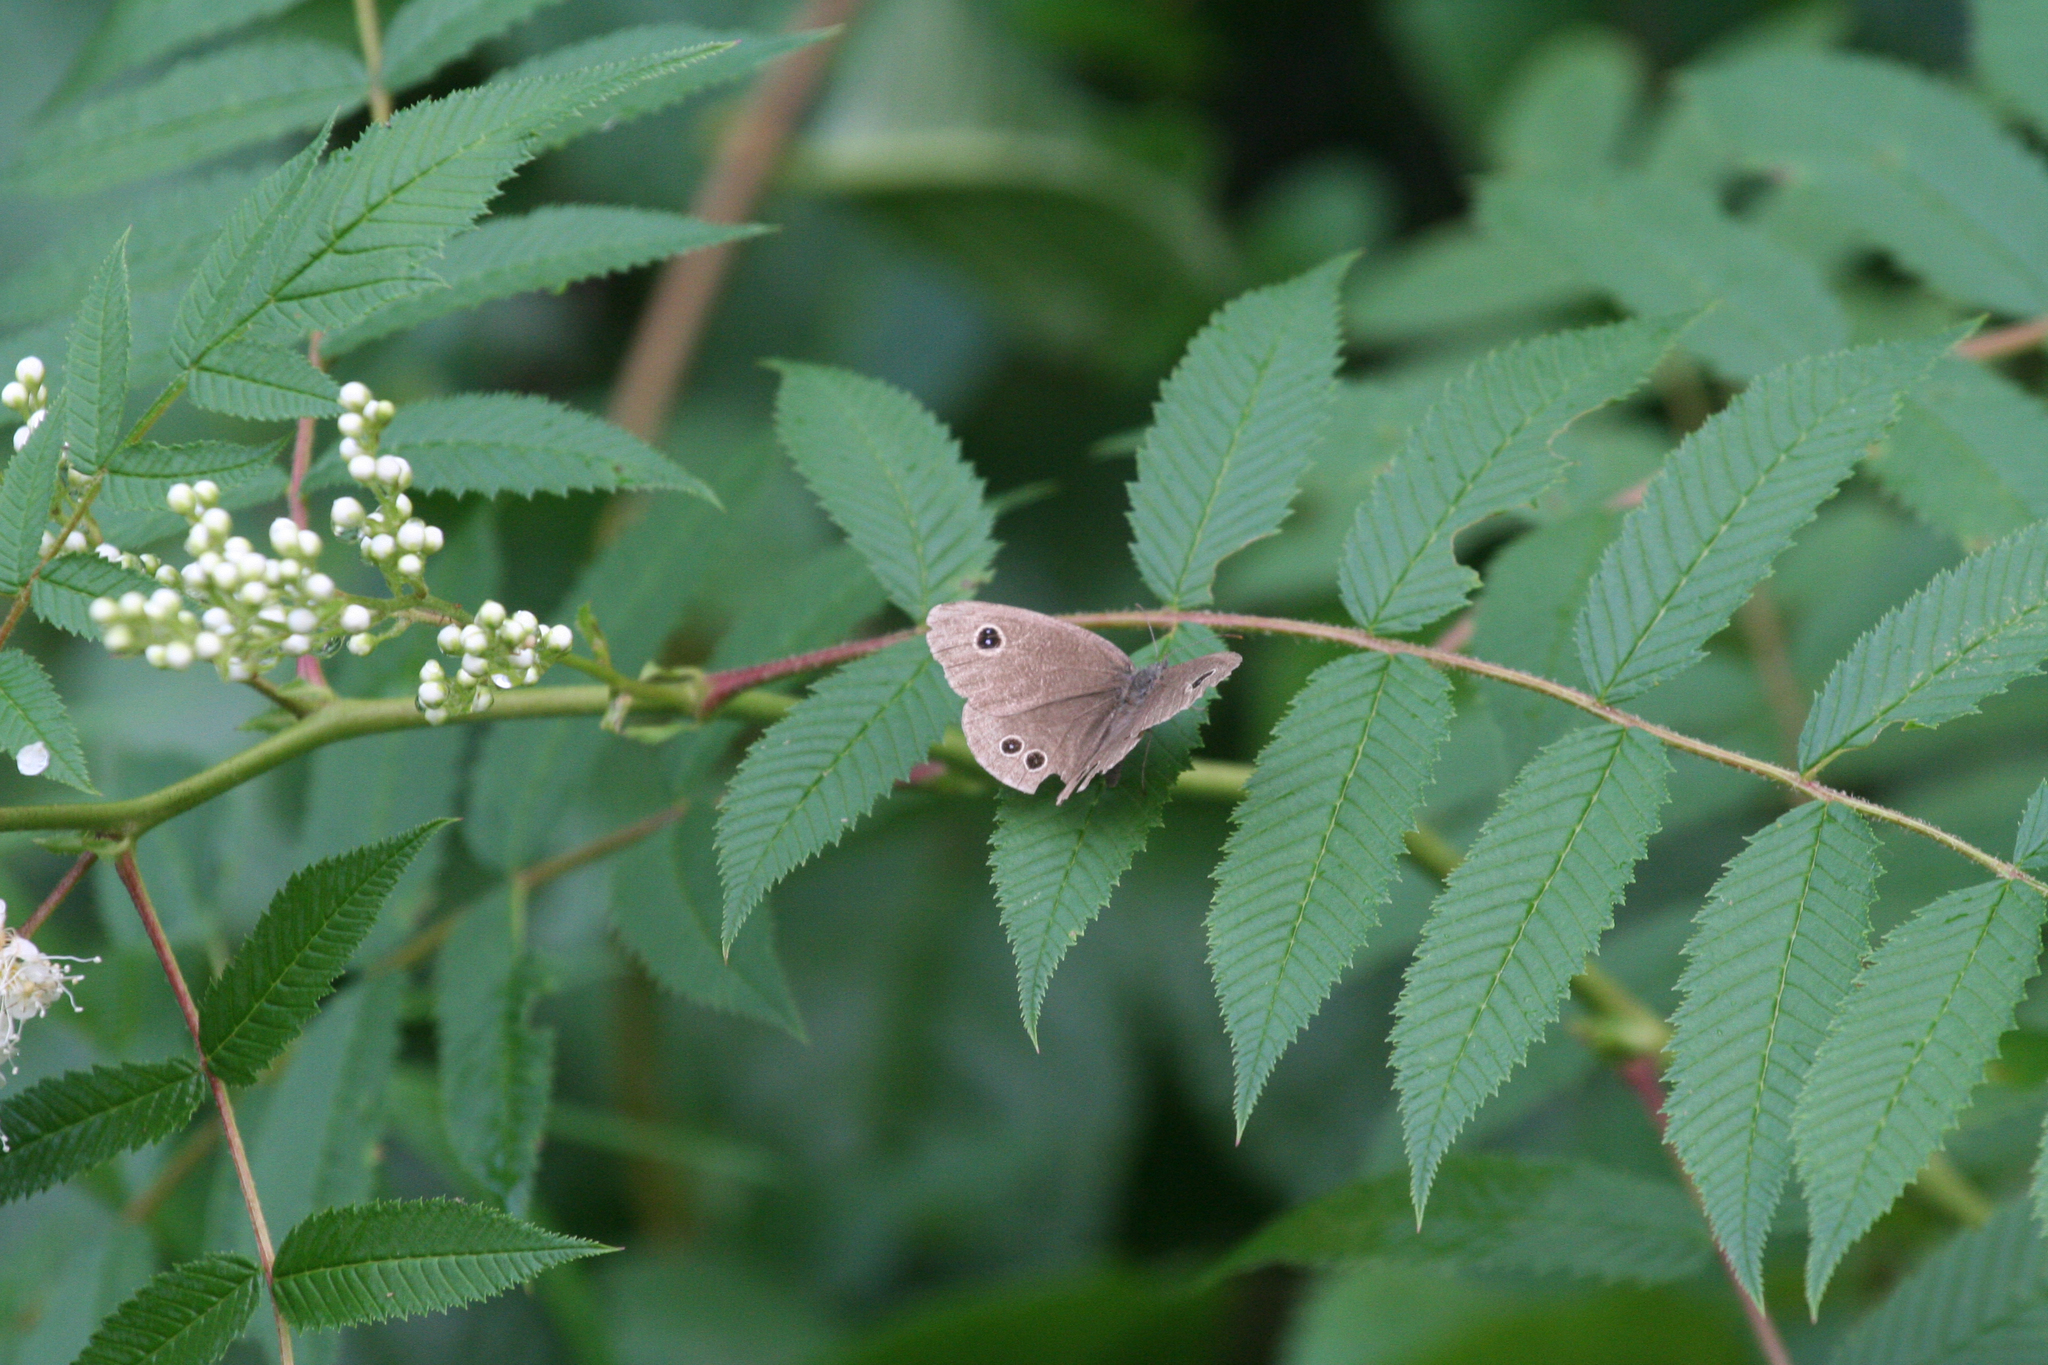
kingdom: Plantae
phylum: Tracheophyta
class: Magnoliopsida
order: Rosales
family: Rosaceae
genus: Sorbaria
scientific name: Sorbaria sorbifolia
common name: False spiraea
